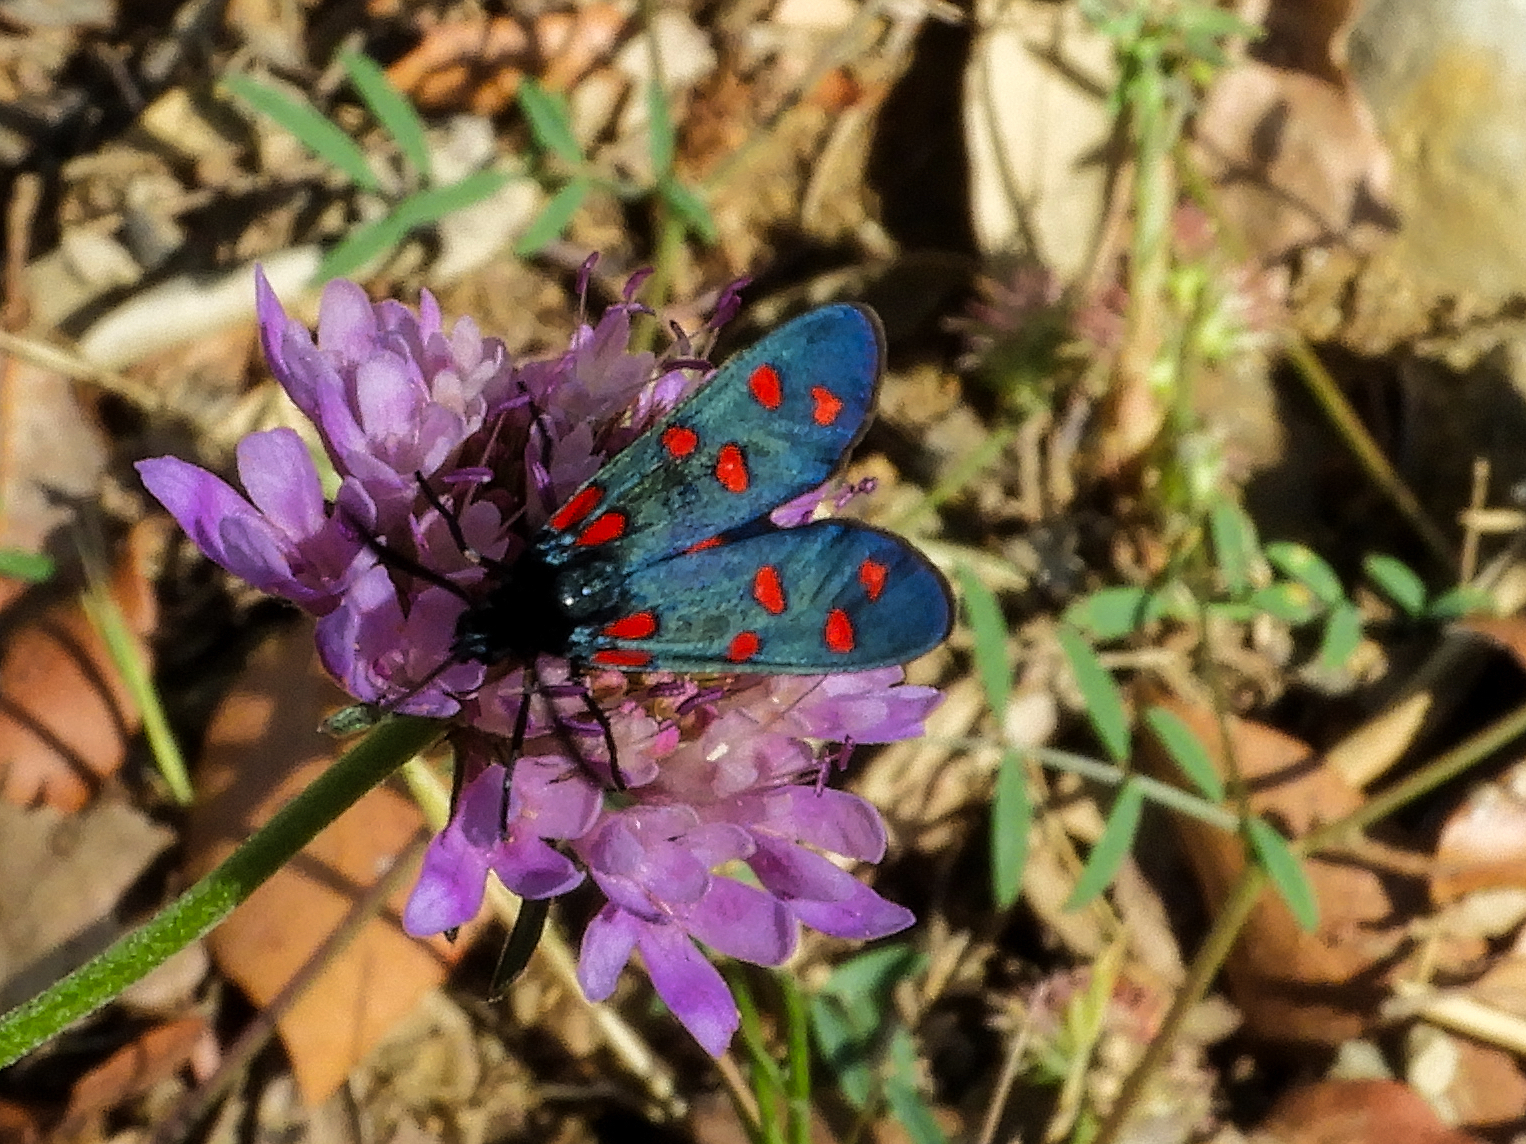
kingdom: Animalia
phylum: Arthropoda
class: Insecta
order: Lepidoptera
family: Zygaenidae
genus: Zygaena
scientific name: Zygaena transalpina
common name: Southern six spot burnet
